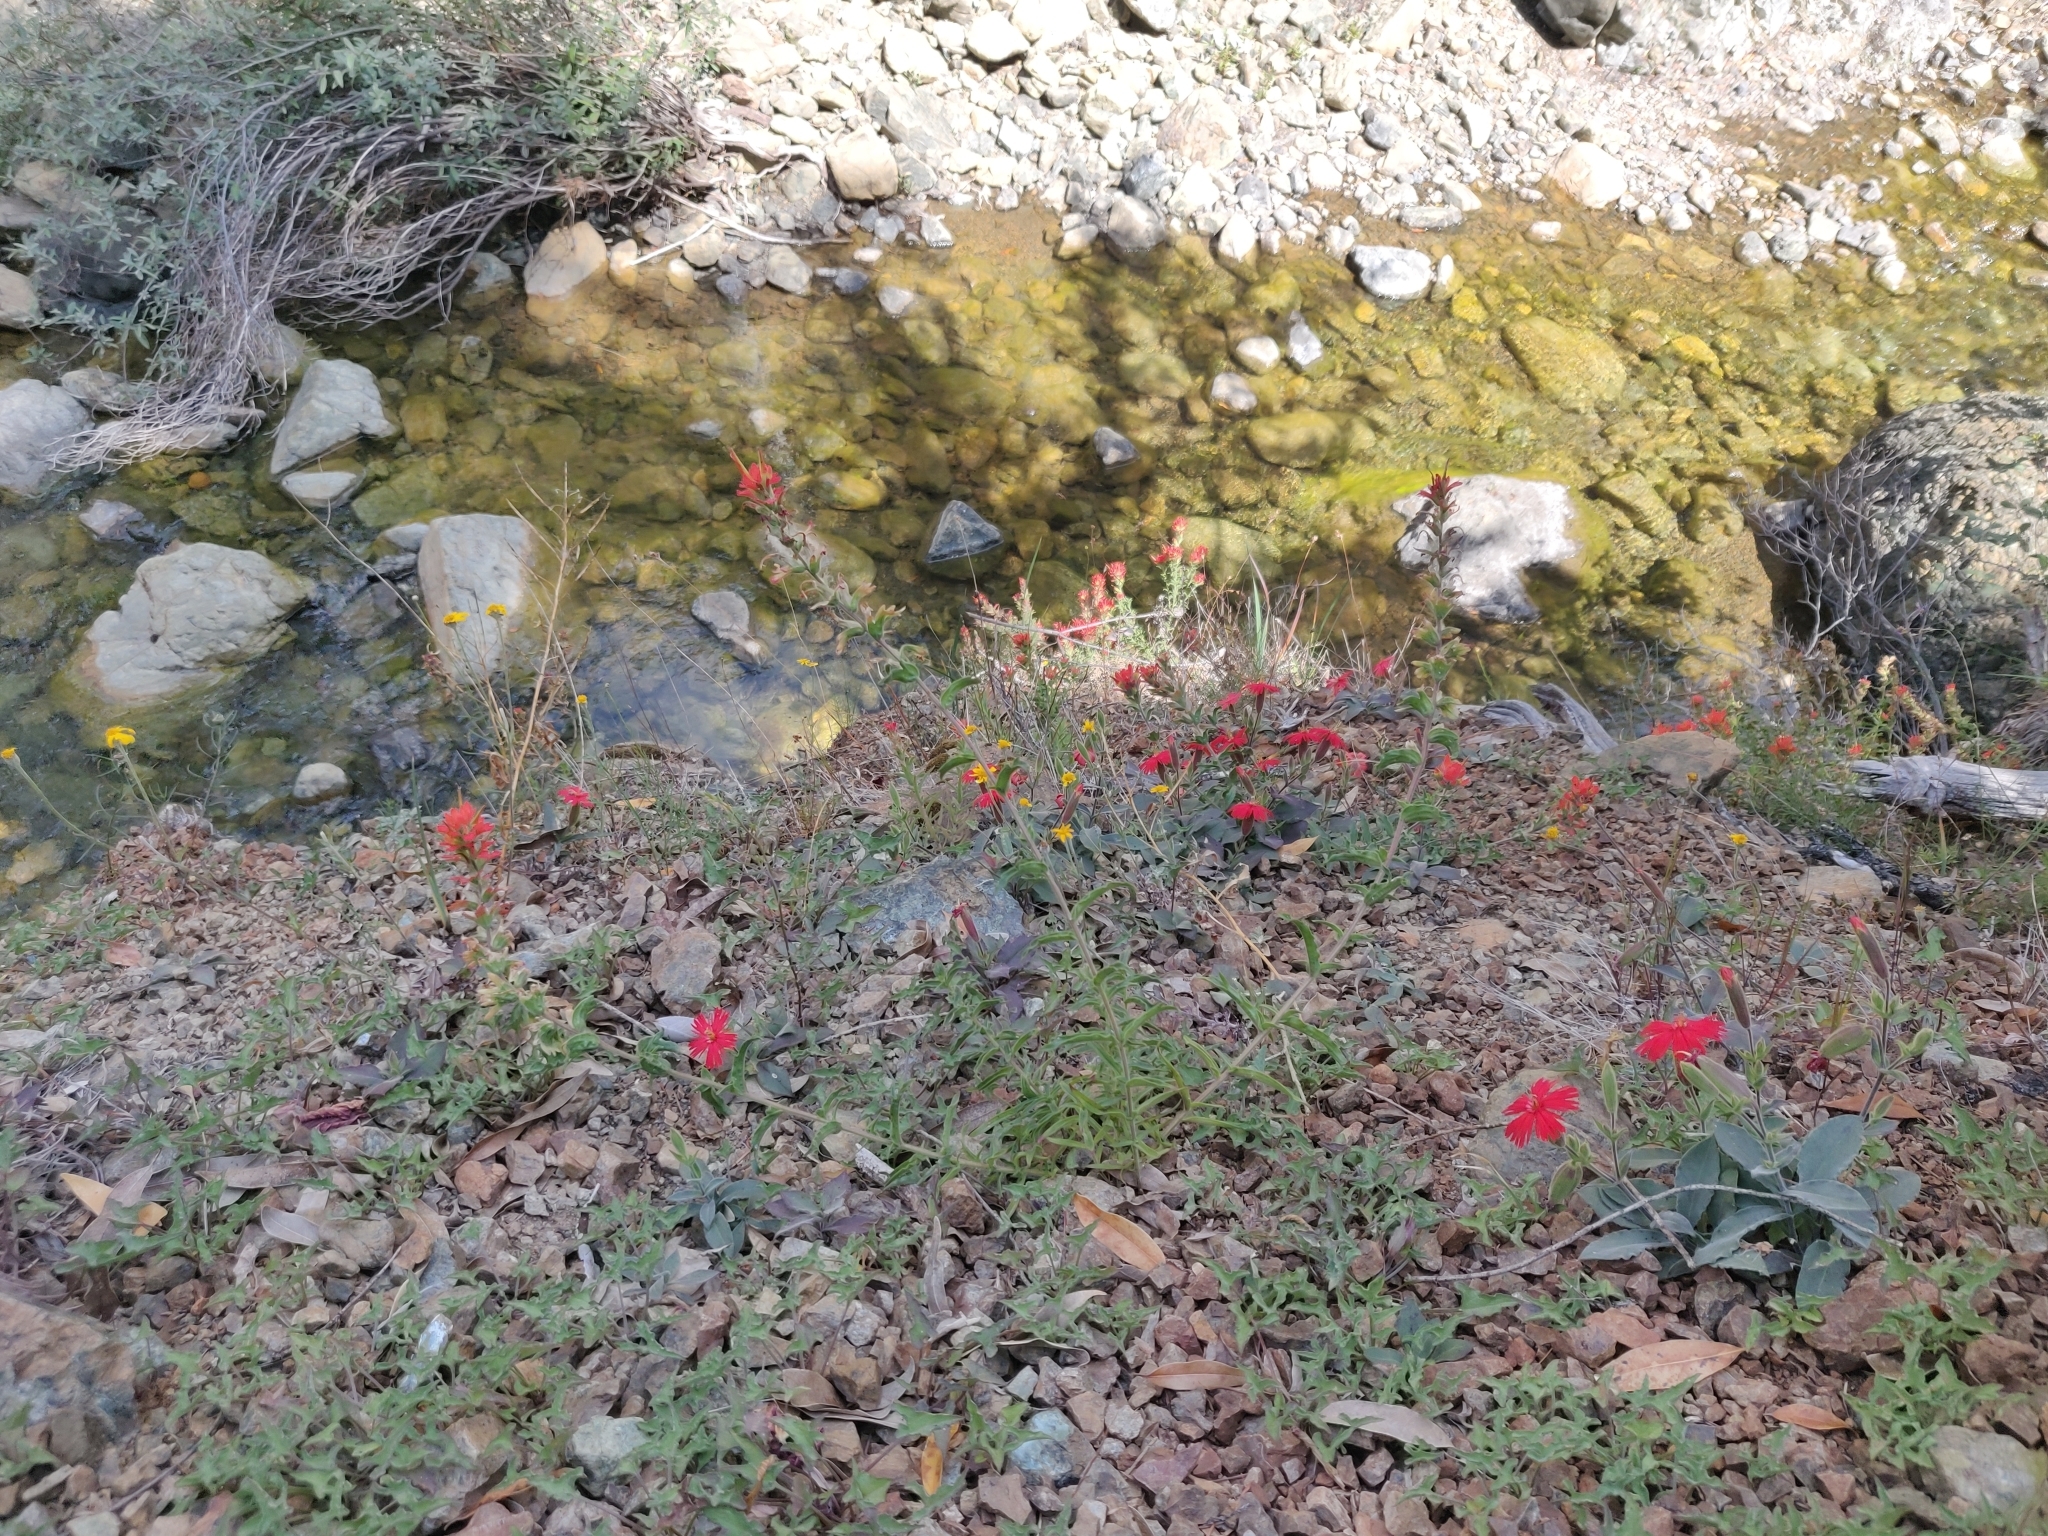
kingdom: Plantae
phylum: Tracheophyta
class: Magnoliopsida
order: Lamiales
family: Orobanchaceae
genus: Castilleja
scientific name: Castilleja martini
